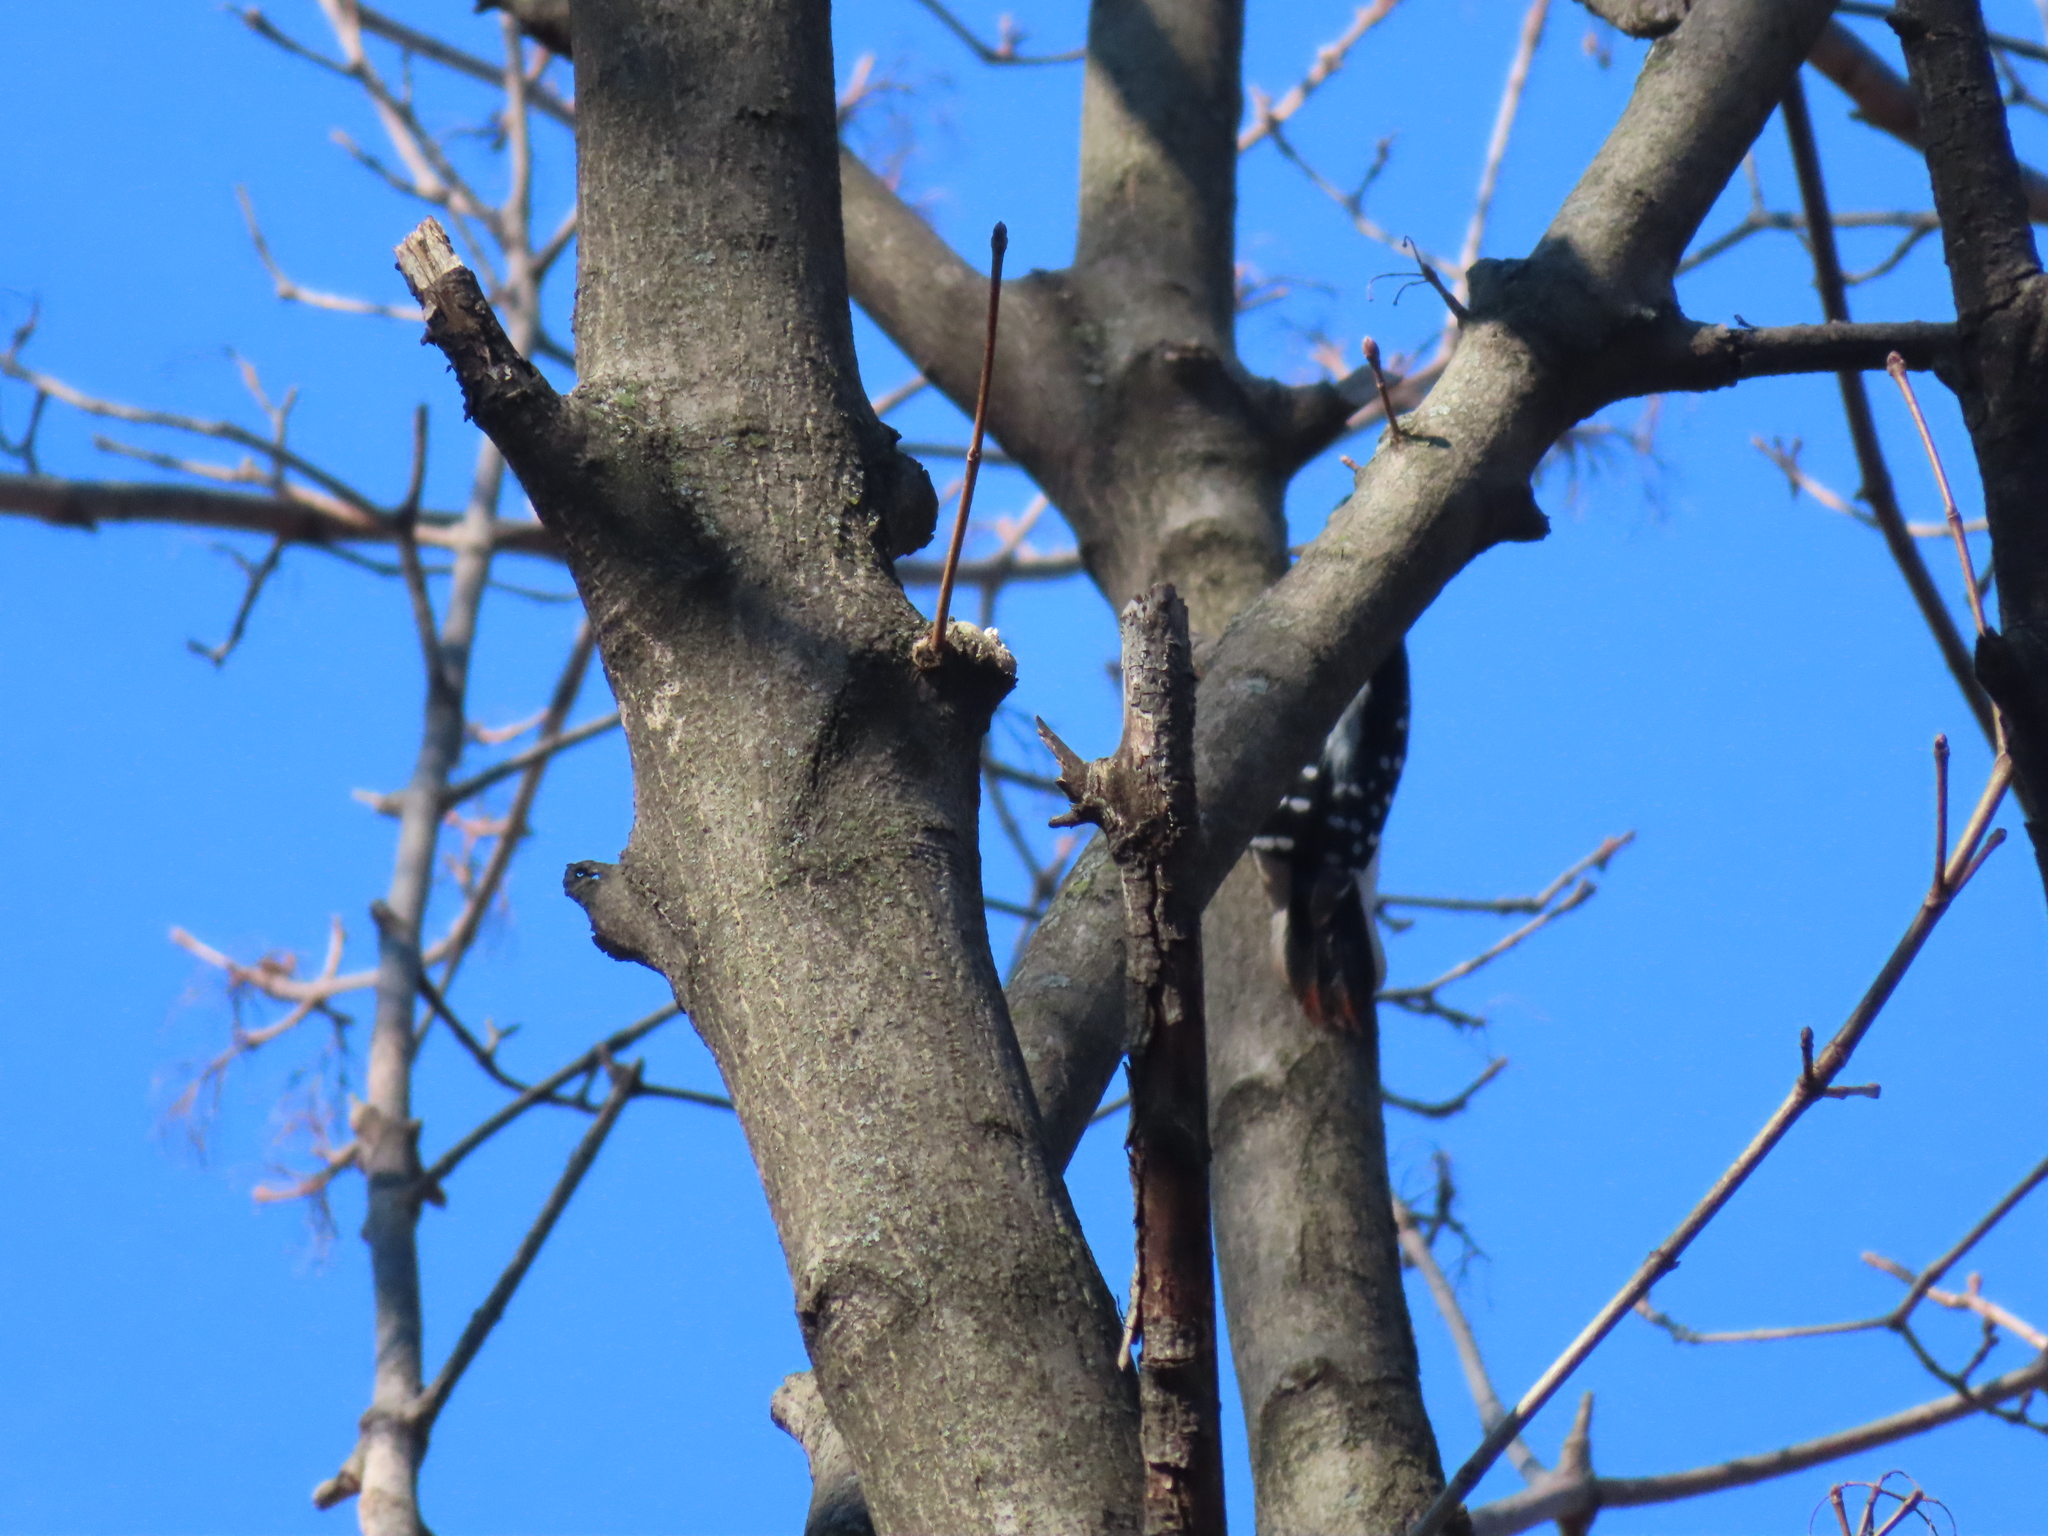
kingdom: Animalia
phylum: Chordata
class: Aves
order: Piciformes
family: Picidae
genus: Leuconotopicus
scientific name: Leuconotopicus villosus
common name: Hairy woodpecker
